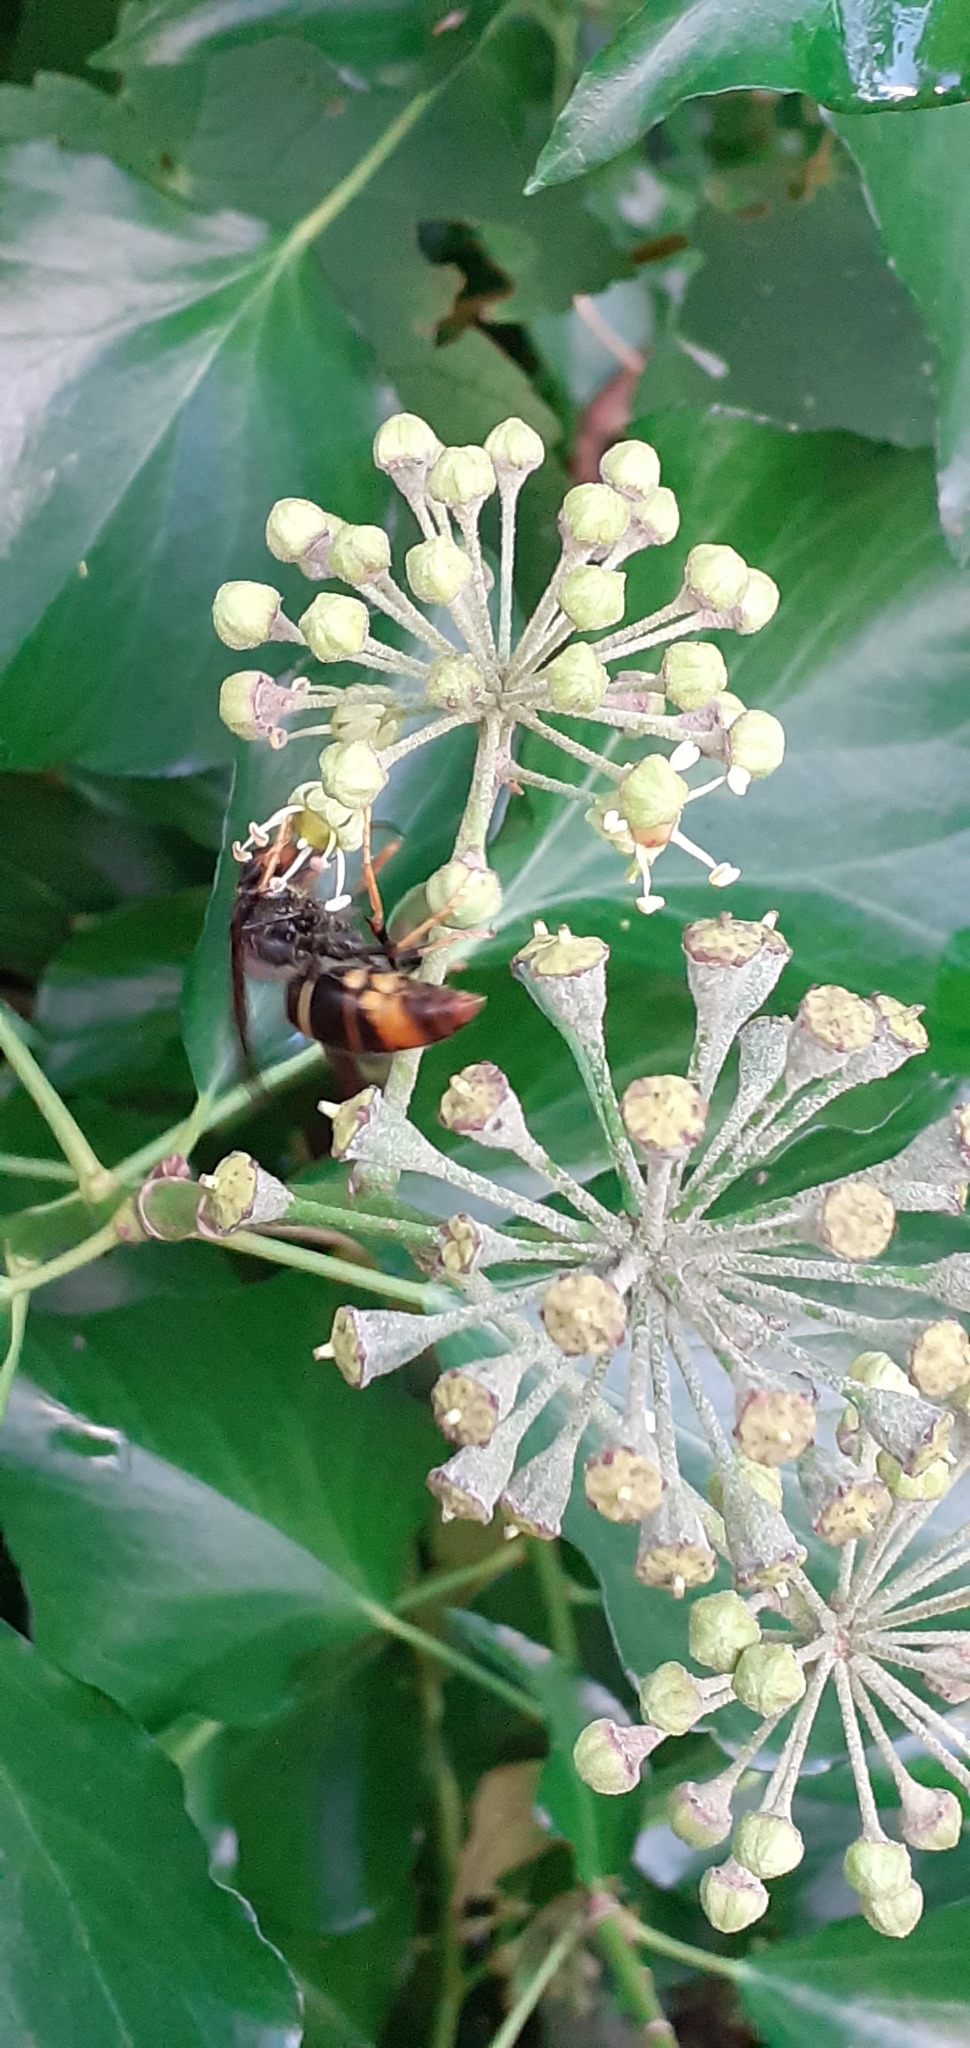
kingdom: Animalia
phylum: Arthropoda
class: Insecta
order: Hymenoptera
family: Vespidae
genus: Vespa
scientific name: Vespa velutina
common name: Asian hornet
